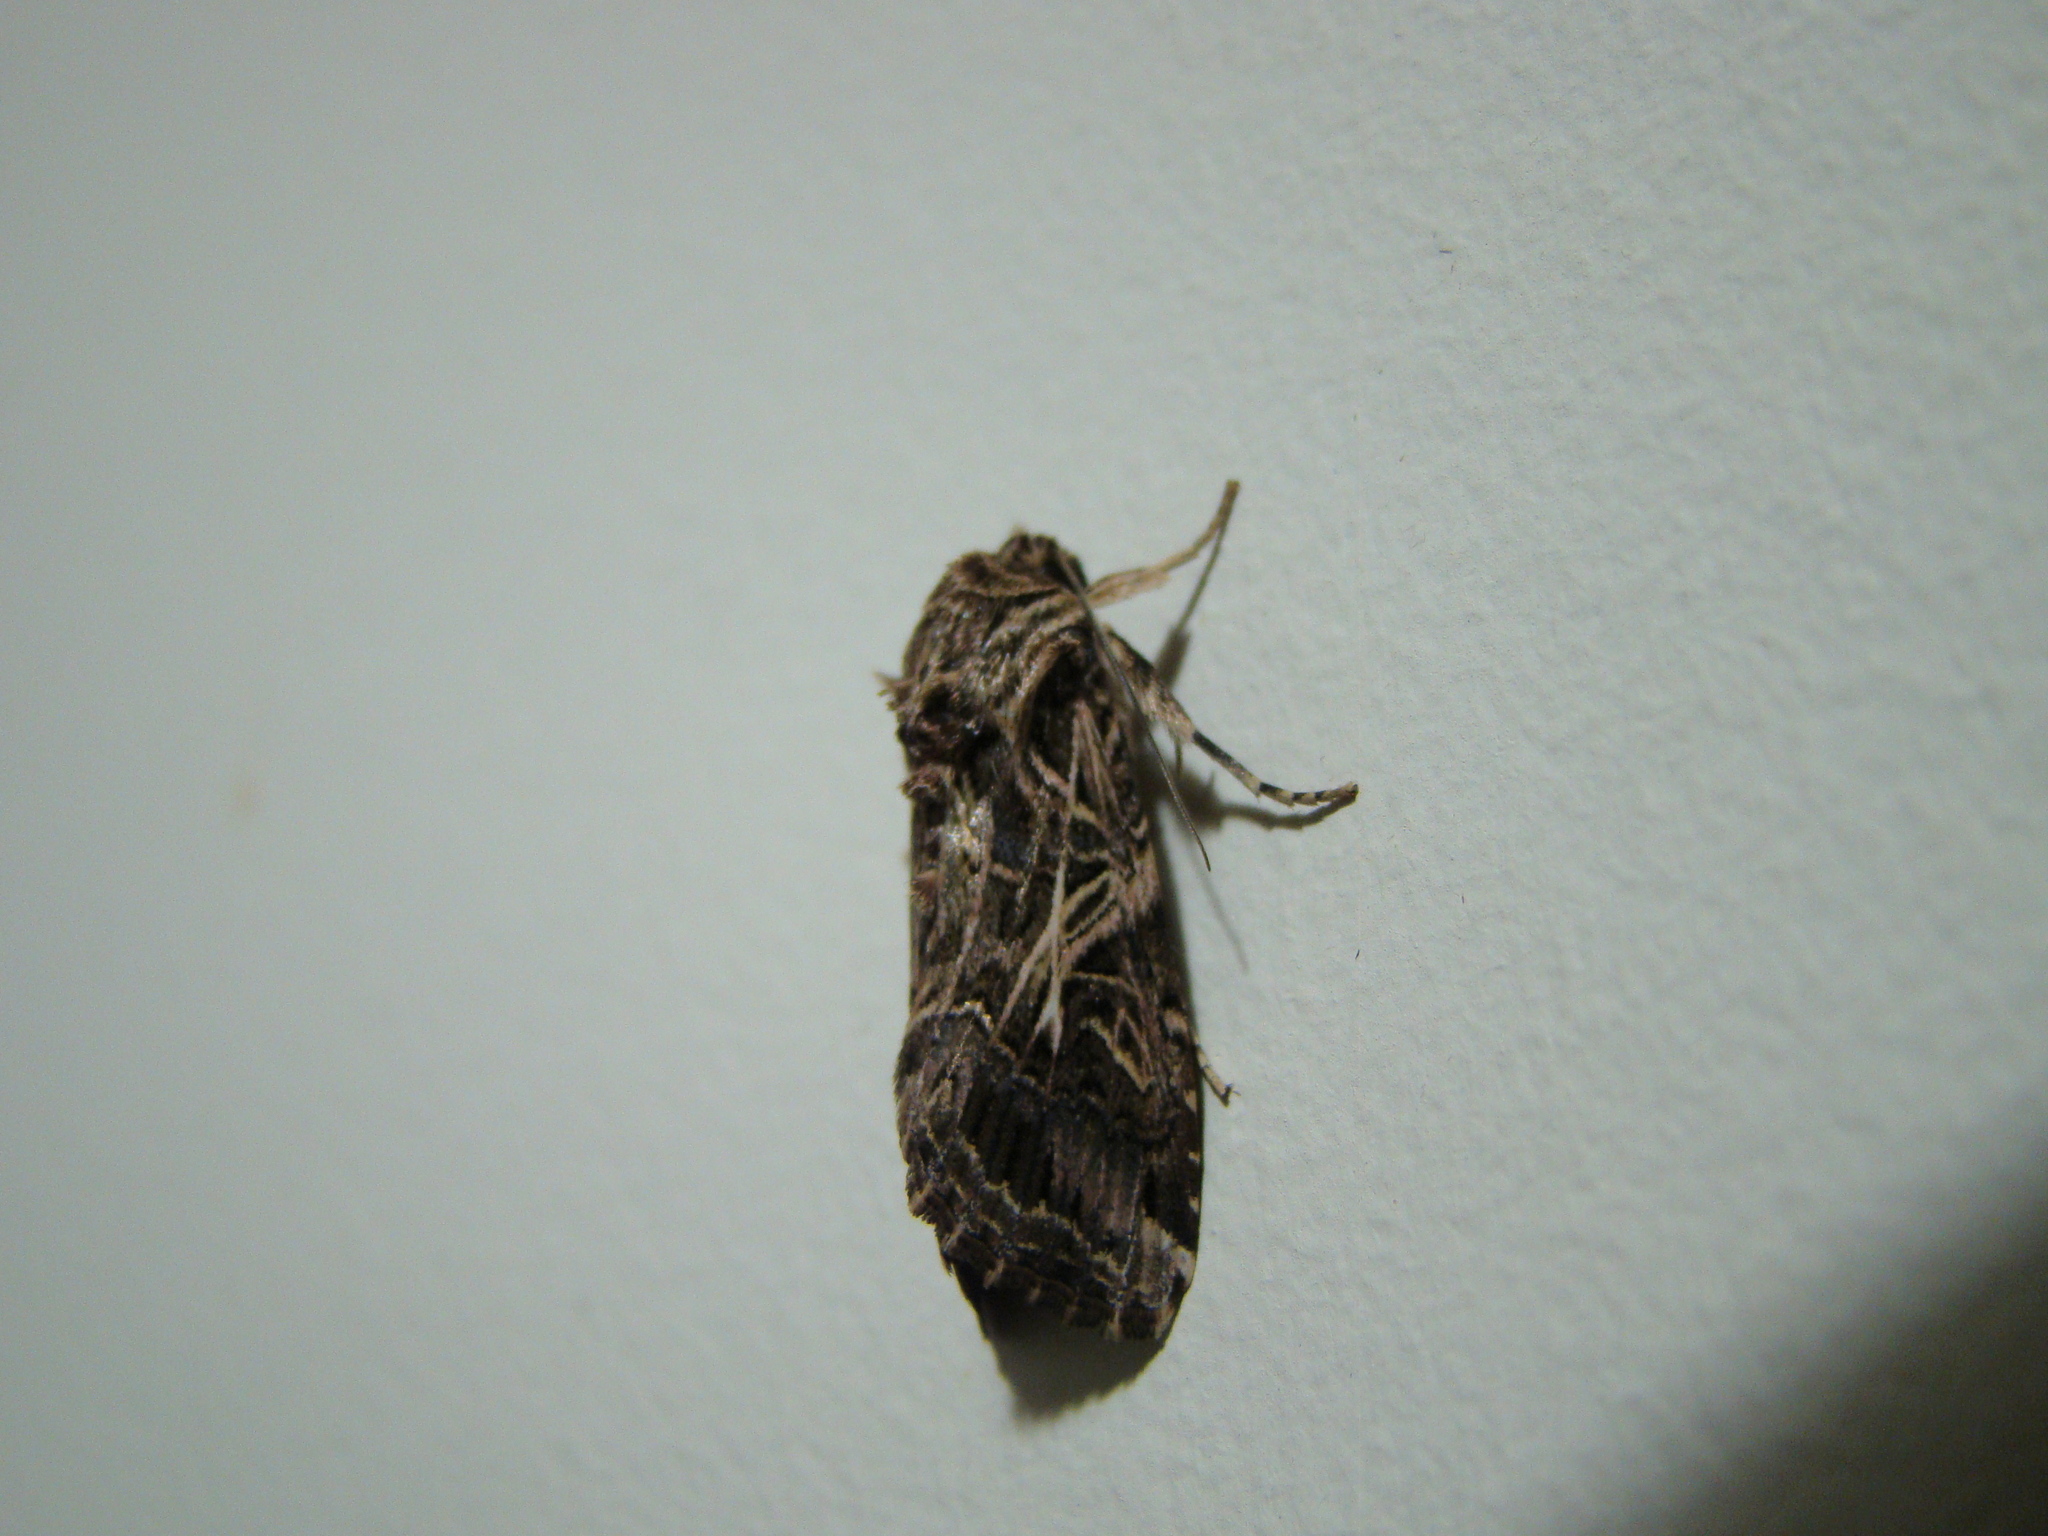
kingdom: Animalia
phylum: Arthropoda
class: Insecta
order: Lepidoptera
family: Noctuidae
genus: Spodoptera
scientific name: Spodoptera litura
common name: Asian cotton leafworm
